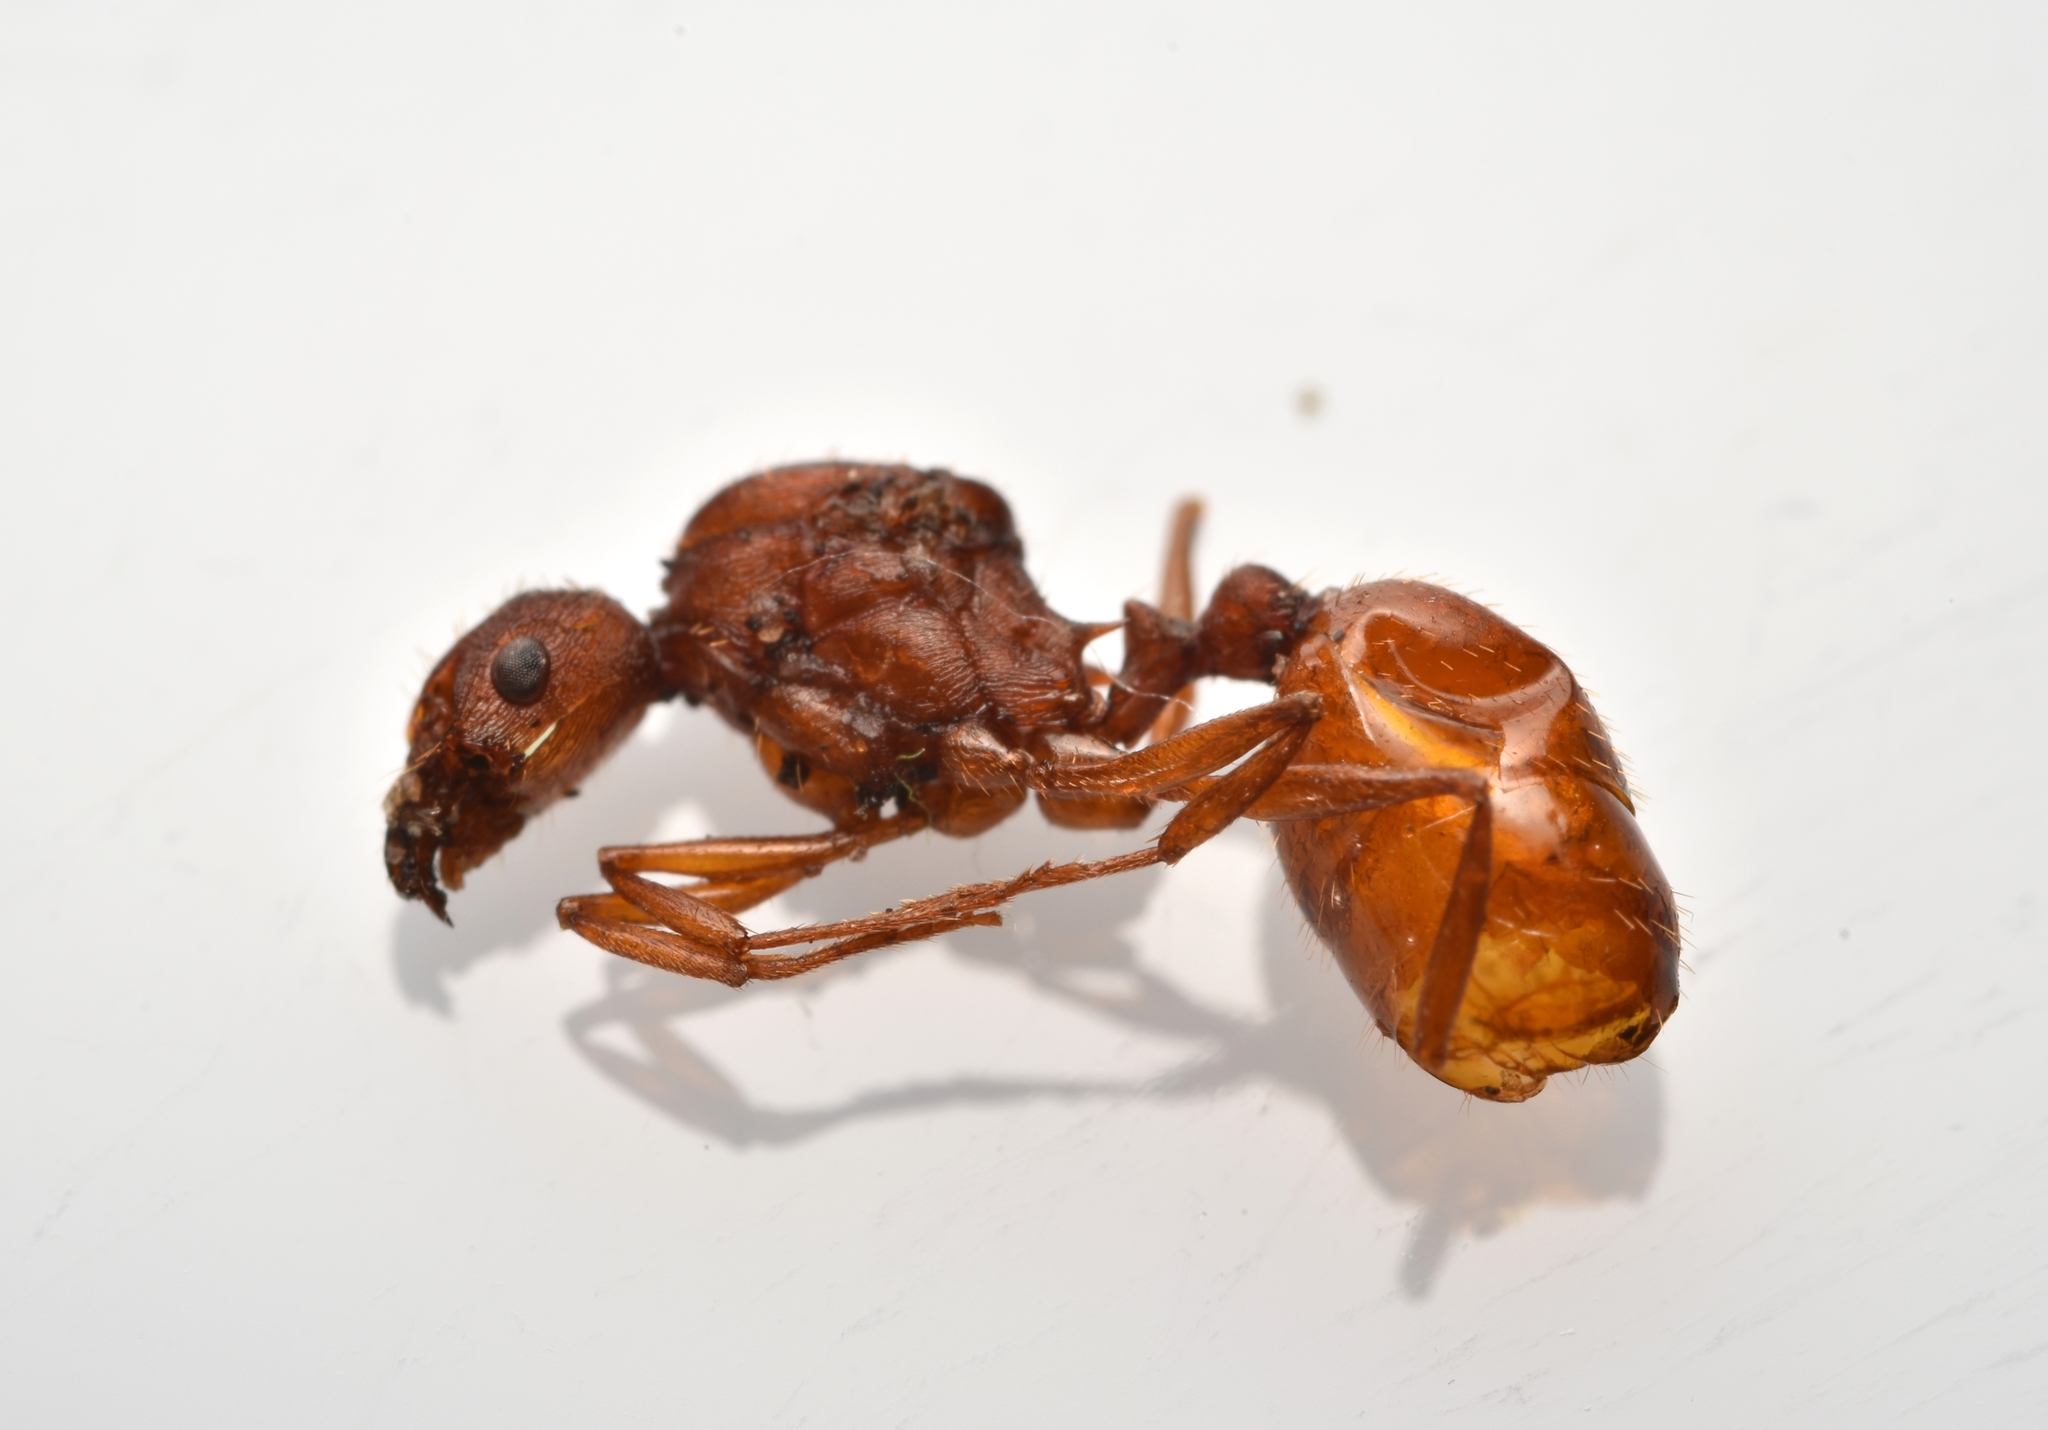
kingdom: Animalia
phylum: Arthropoda
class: Insecta
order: Hymenoptera
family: Formicidae
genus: Aphaenogaster
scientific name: Aphaenogaster texana
